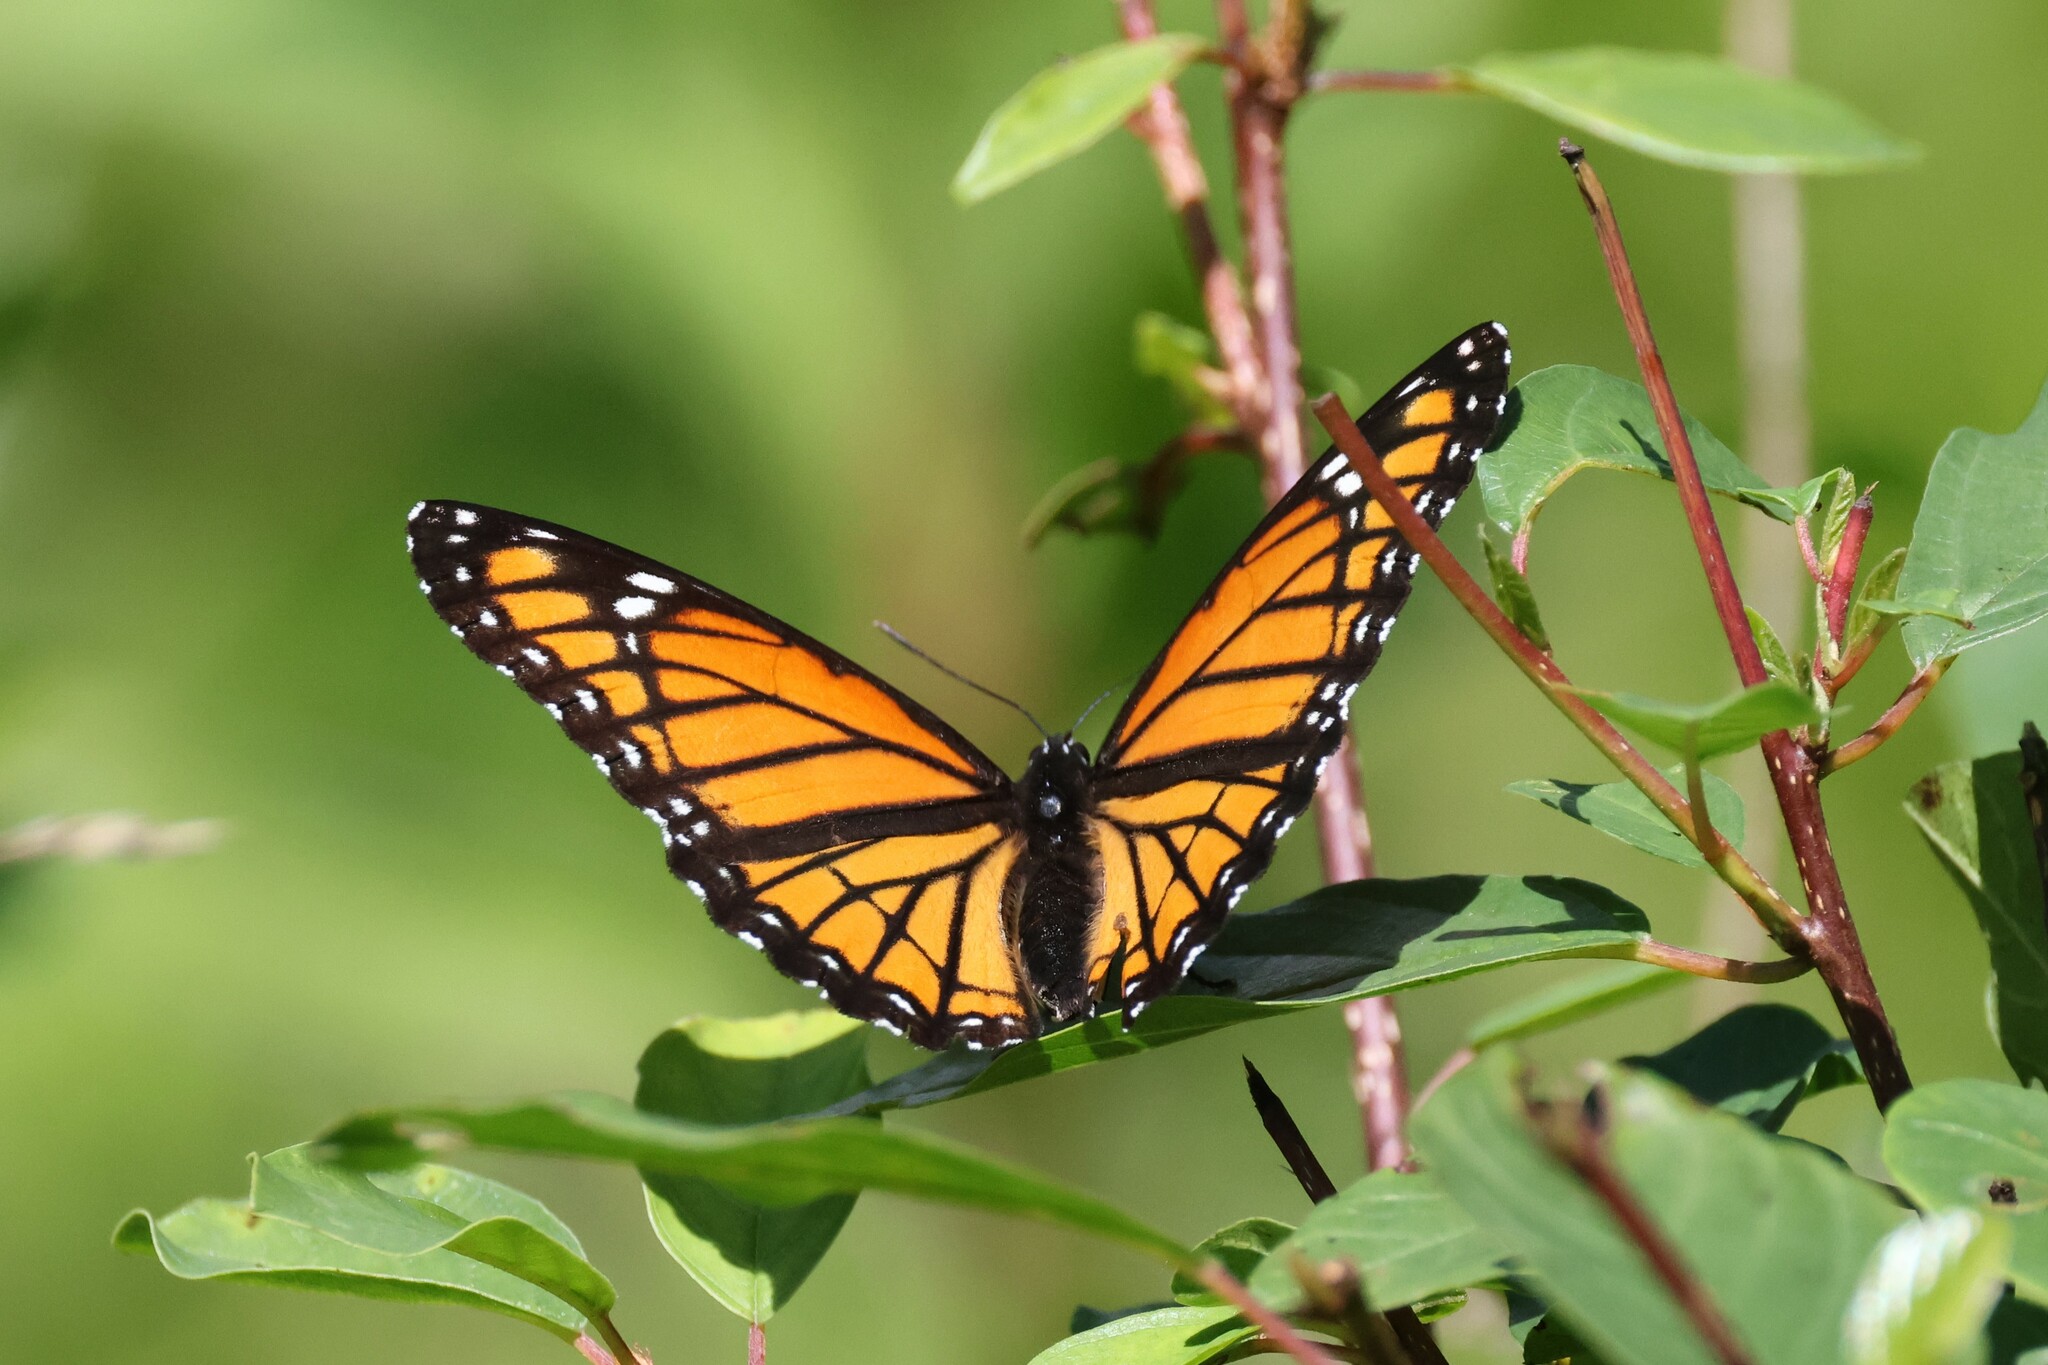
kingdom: Animalia
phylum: Arthropoda
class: Insecta
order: Lepidoptera
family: Nymphalidae
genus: Limenitis
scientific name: Limenitis archippus
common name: Viceroy
